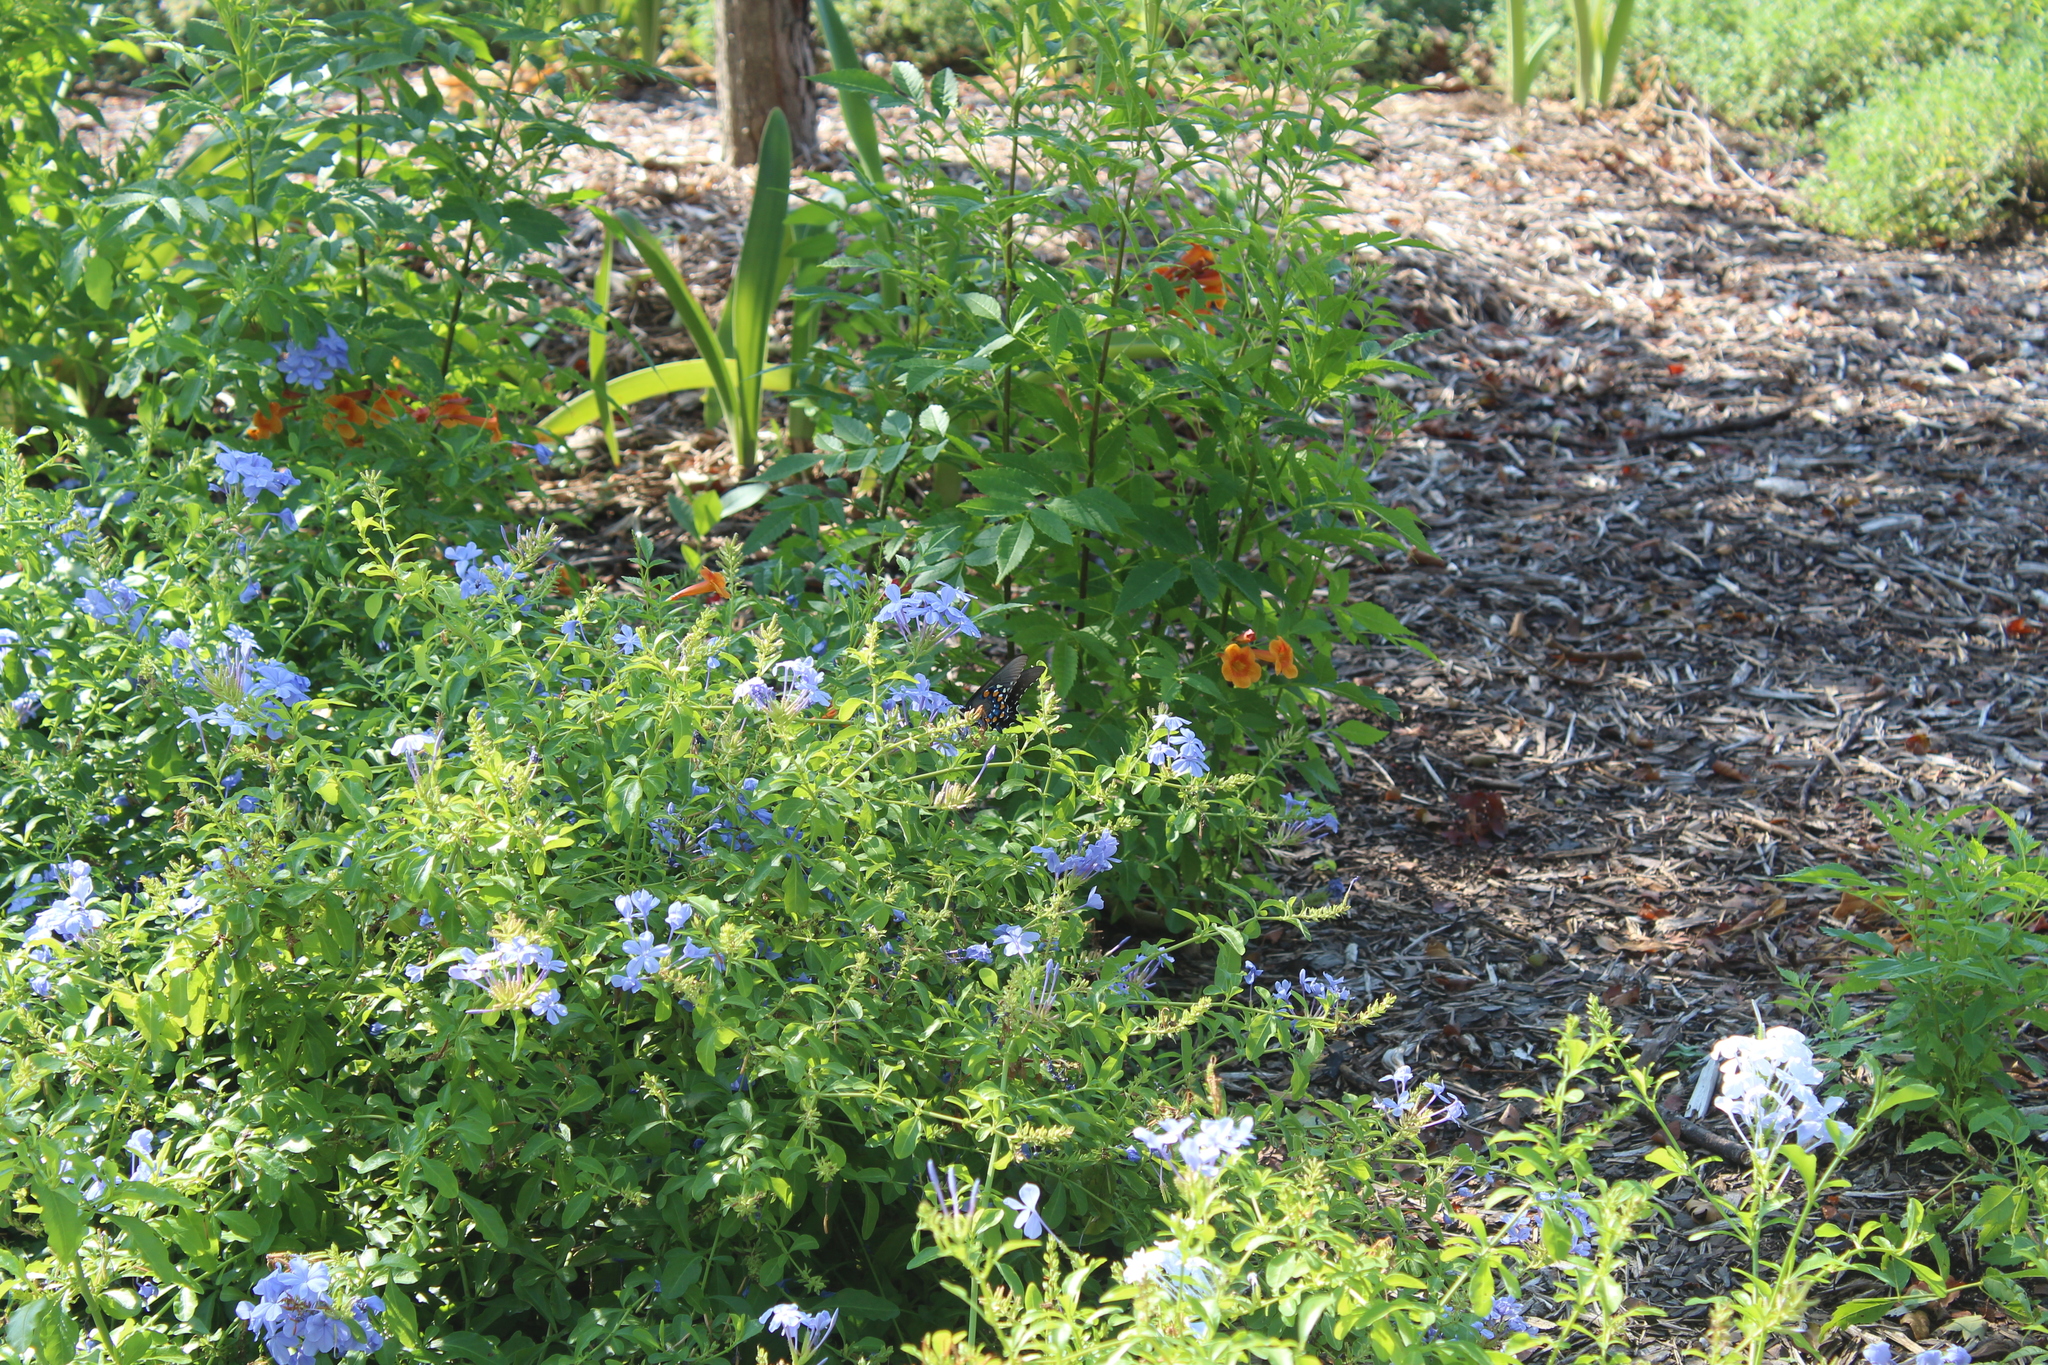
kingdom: Animalia
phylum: Arthropoda
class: Insecta
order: Lepidoptera
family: Papilionidae
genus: Battus
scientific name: Battus philenor
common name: Pipevine swallowtail
